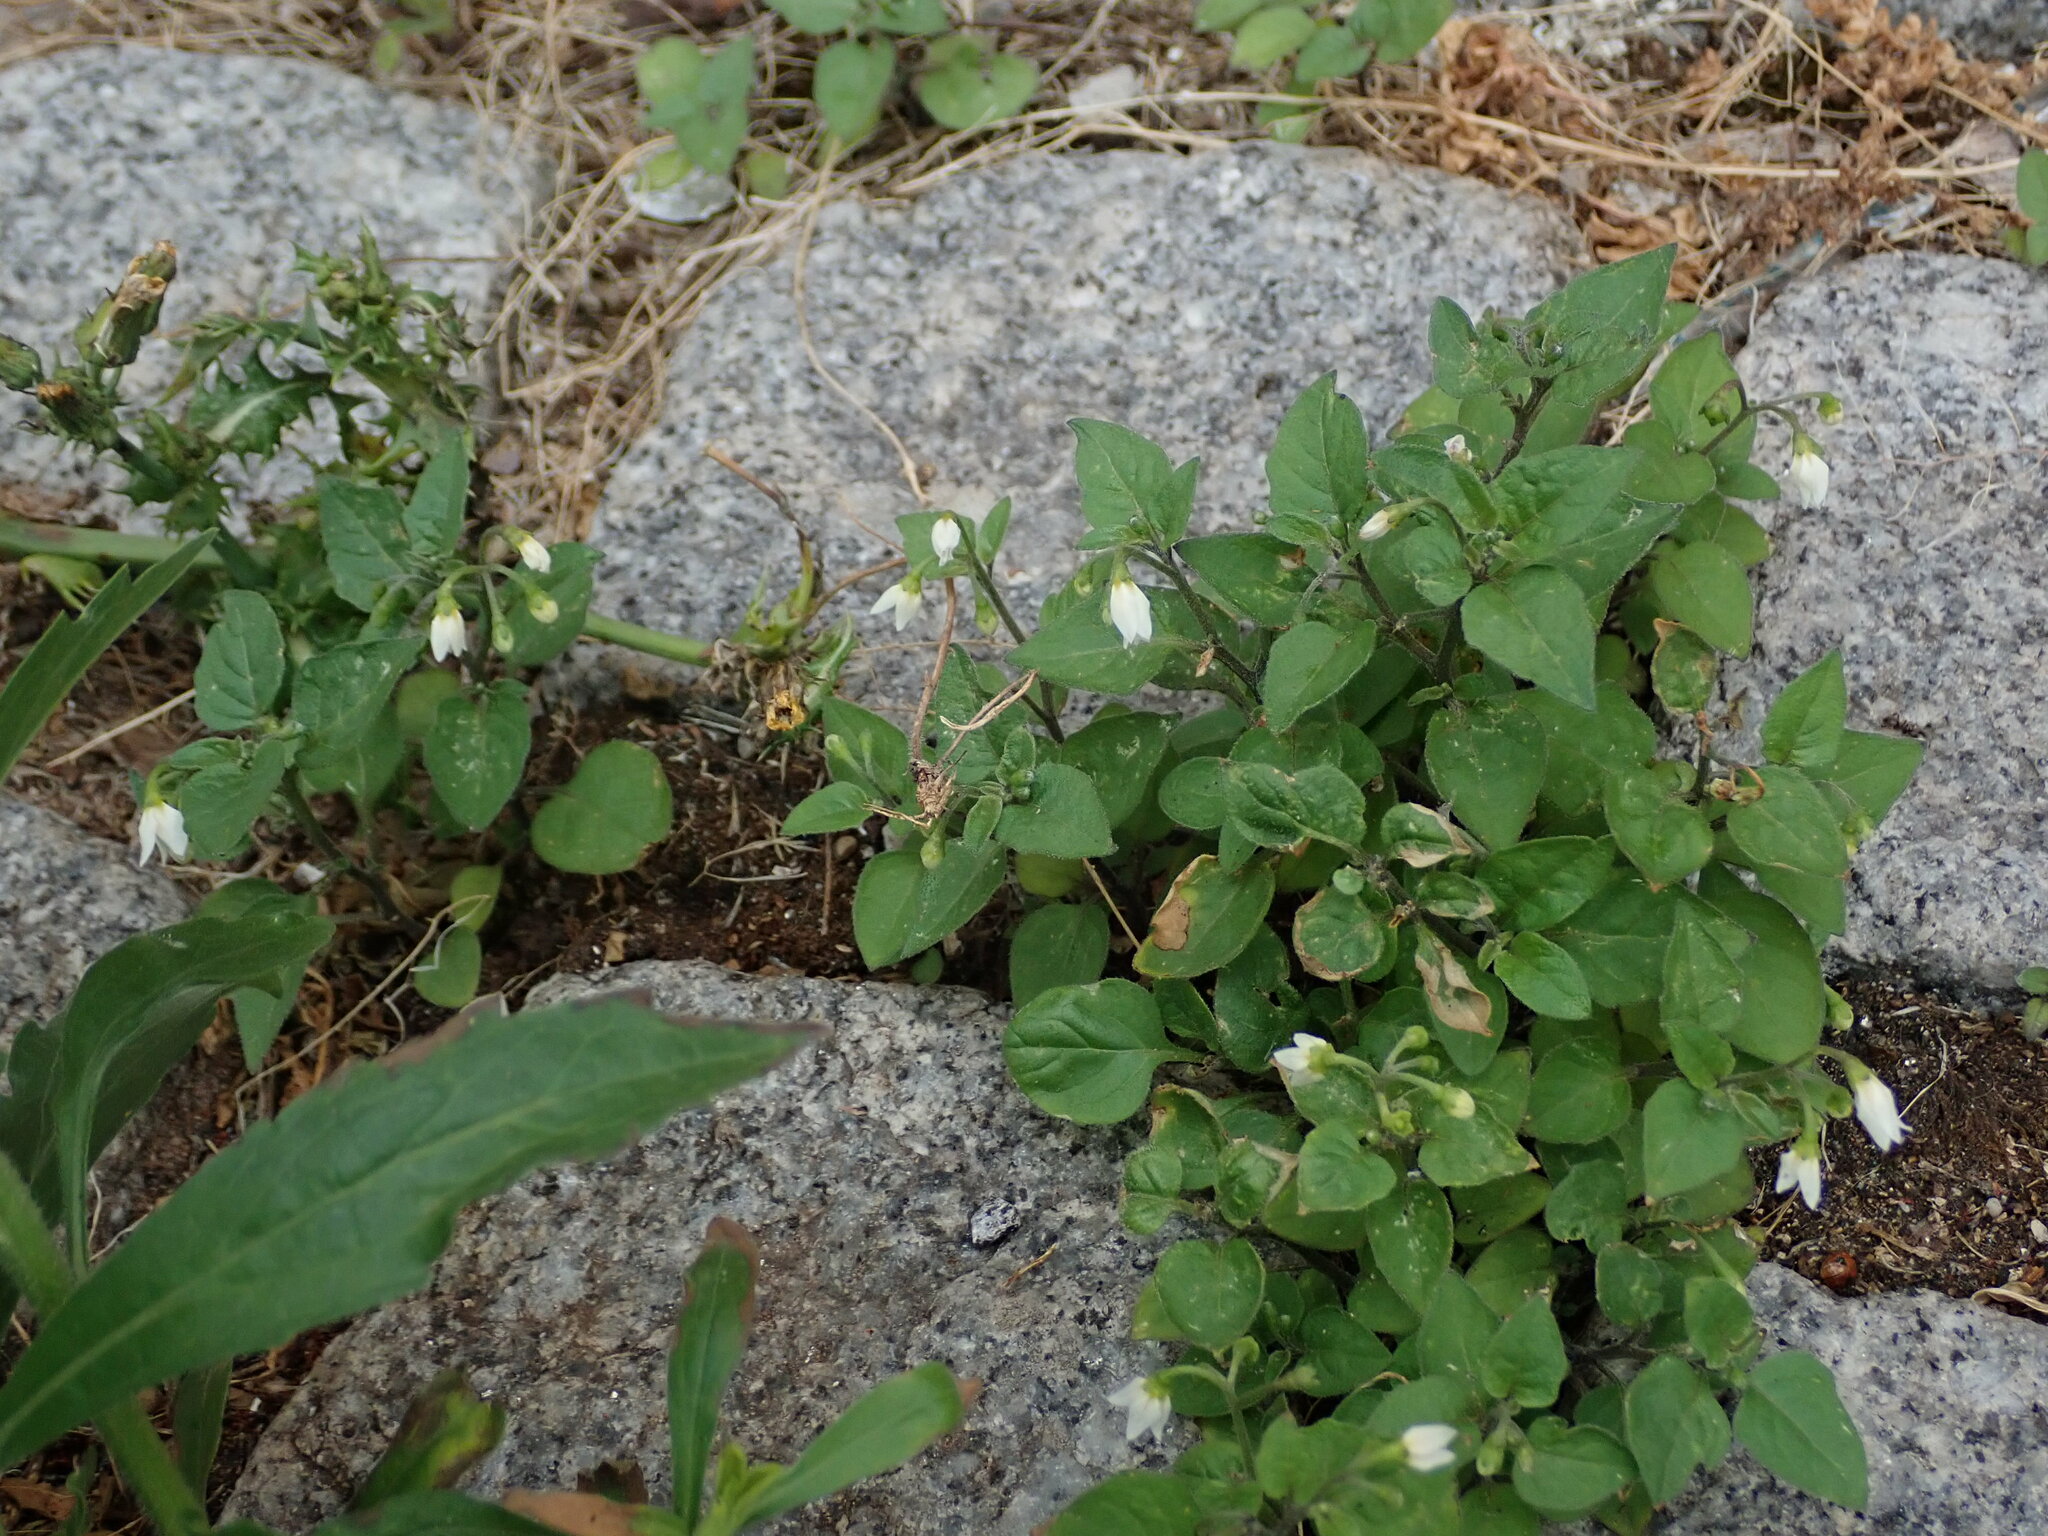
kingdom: Plantae
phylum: Tracheophyta
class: Magnoliopsida
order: Solanales
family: Solanaceae
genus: Solanum
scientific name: Solanum nigrum
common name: Black nightshade
